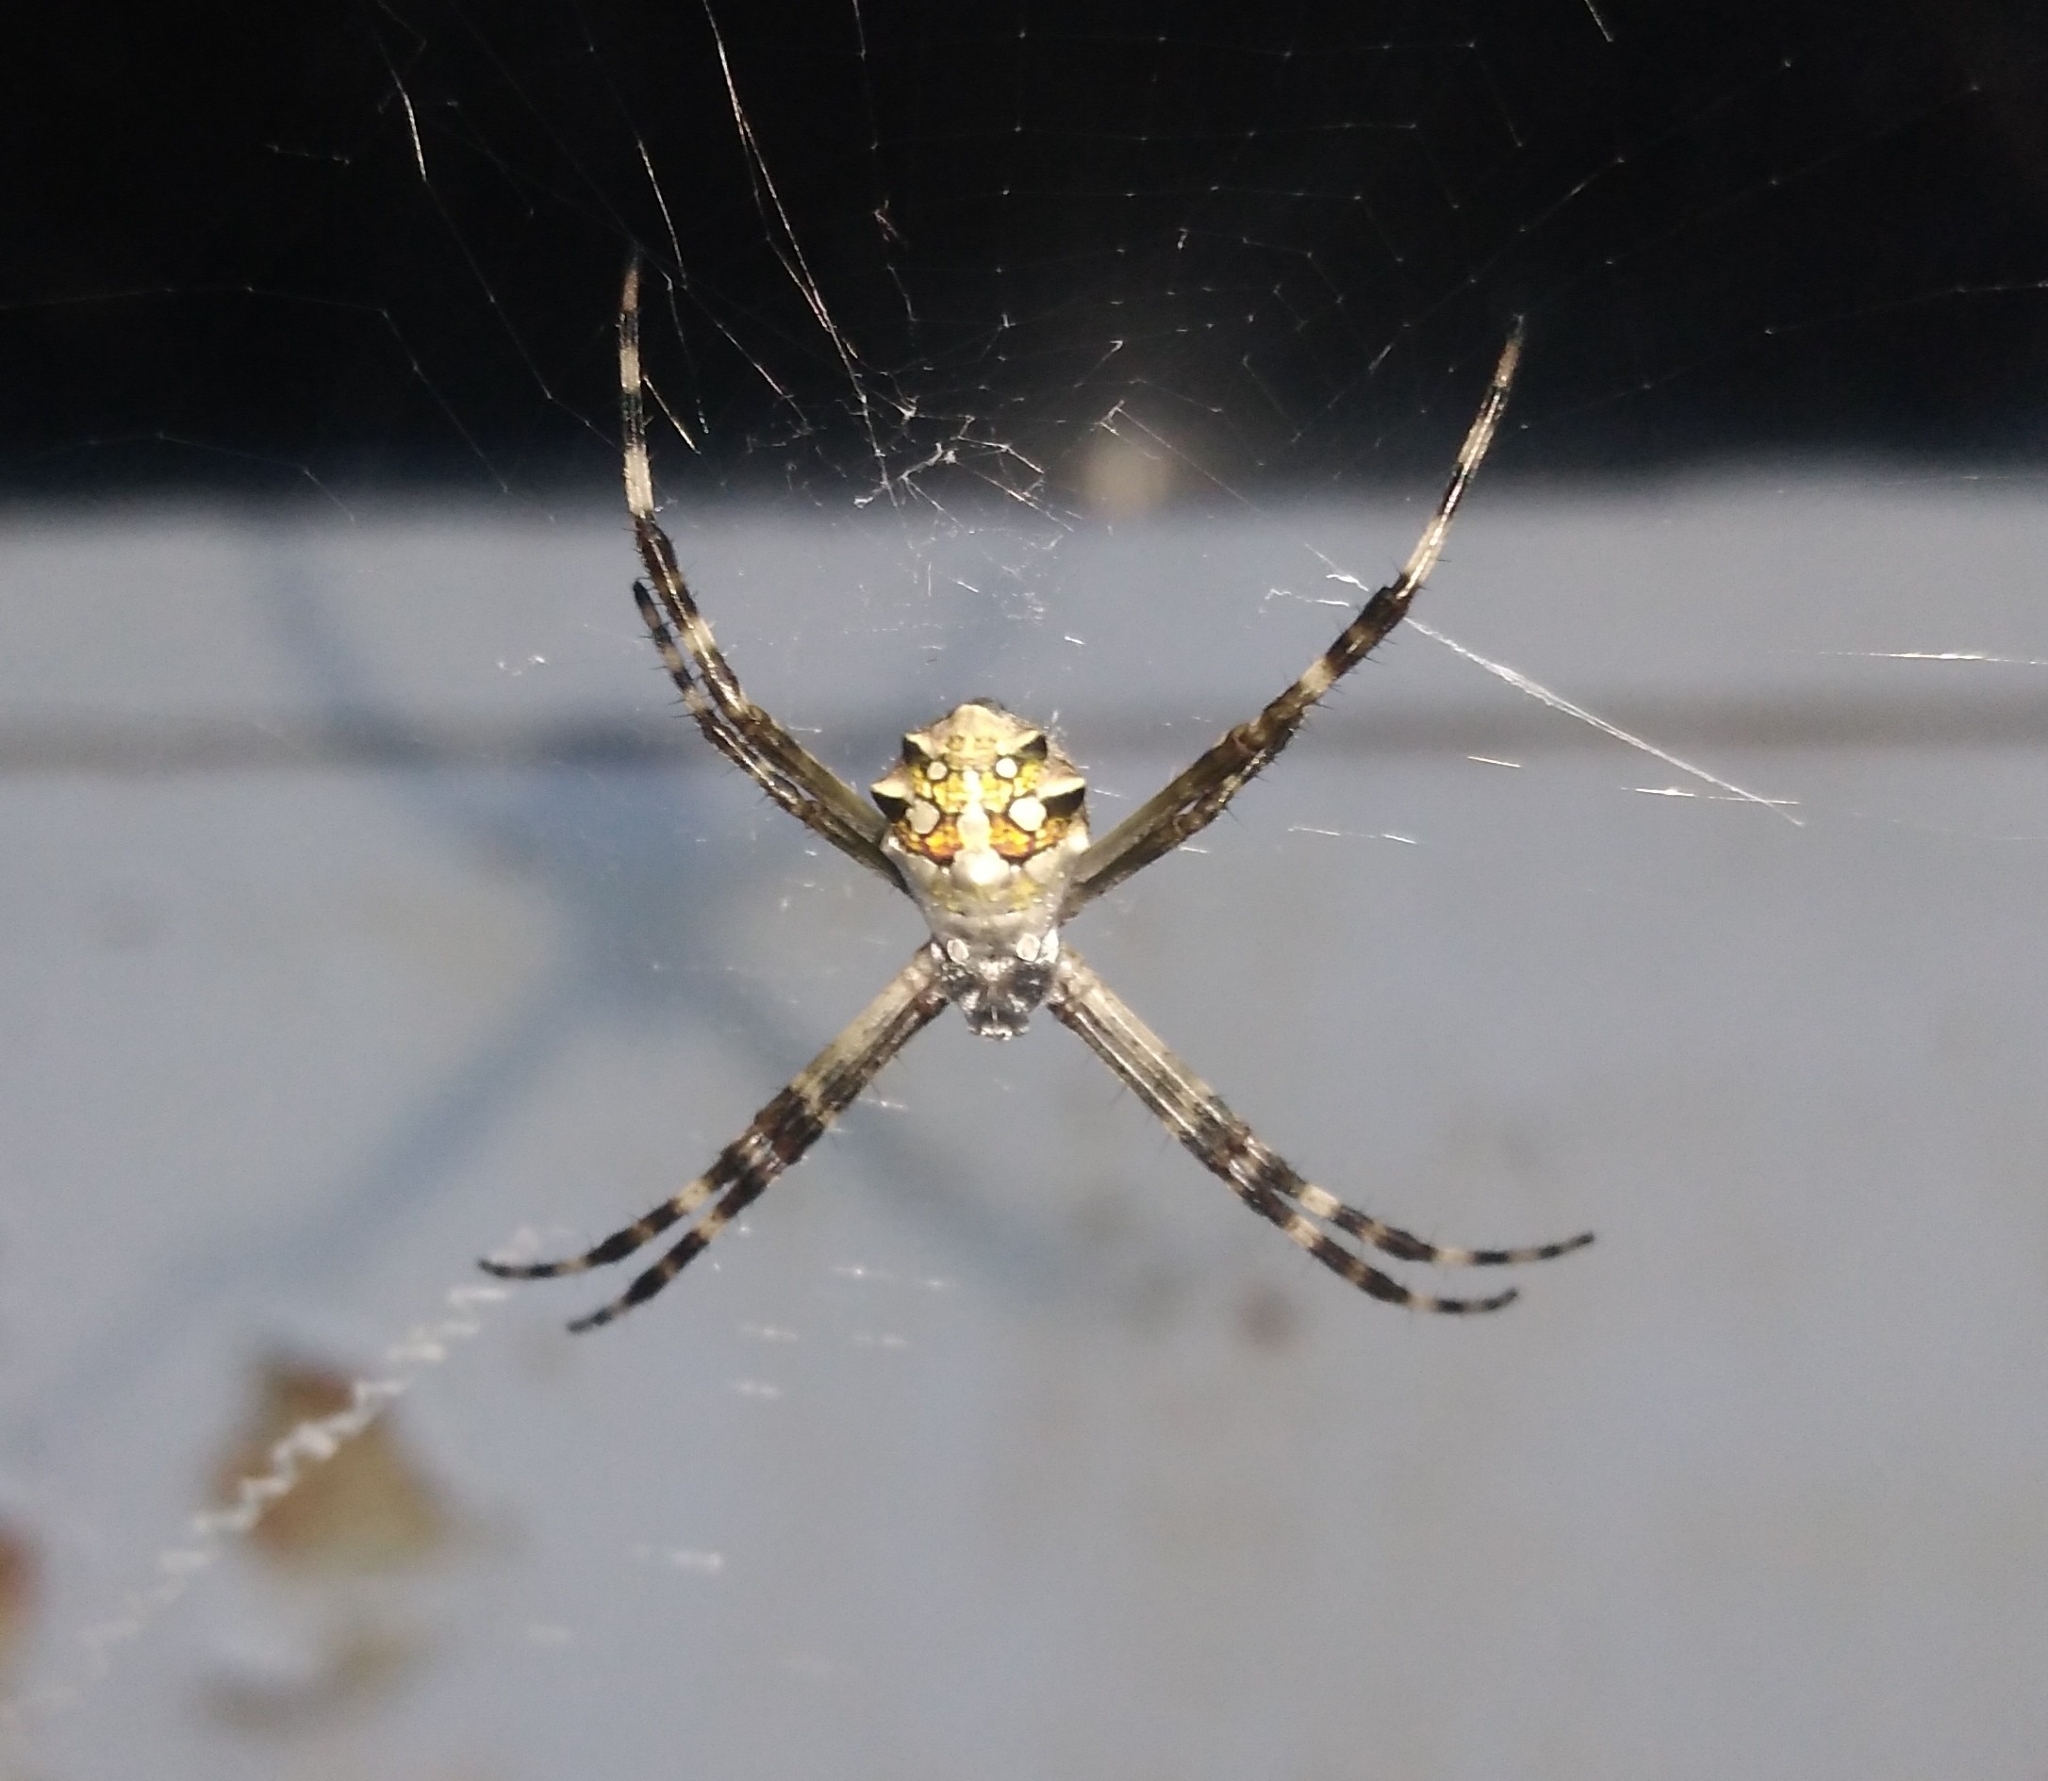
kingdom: Animalia
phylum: Arthropoda
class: Arachnida
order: Araneae
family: Araneidae
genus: Argiope
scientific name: Argiope argentata
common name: Orb weavers
